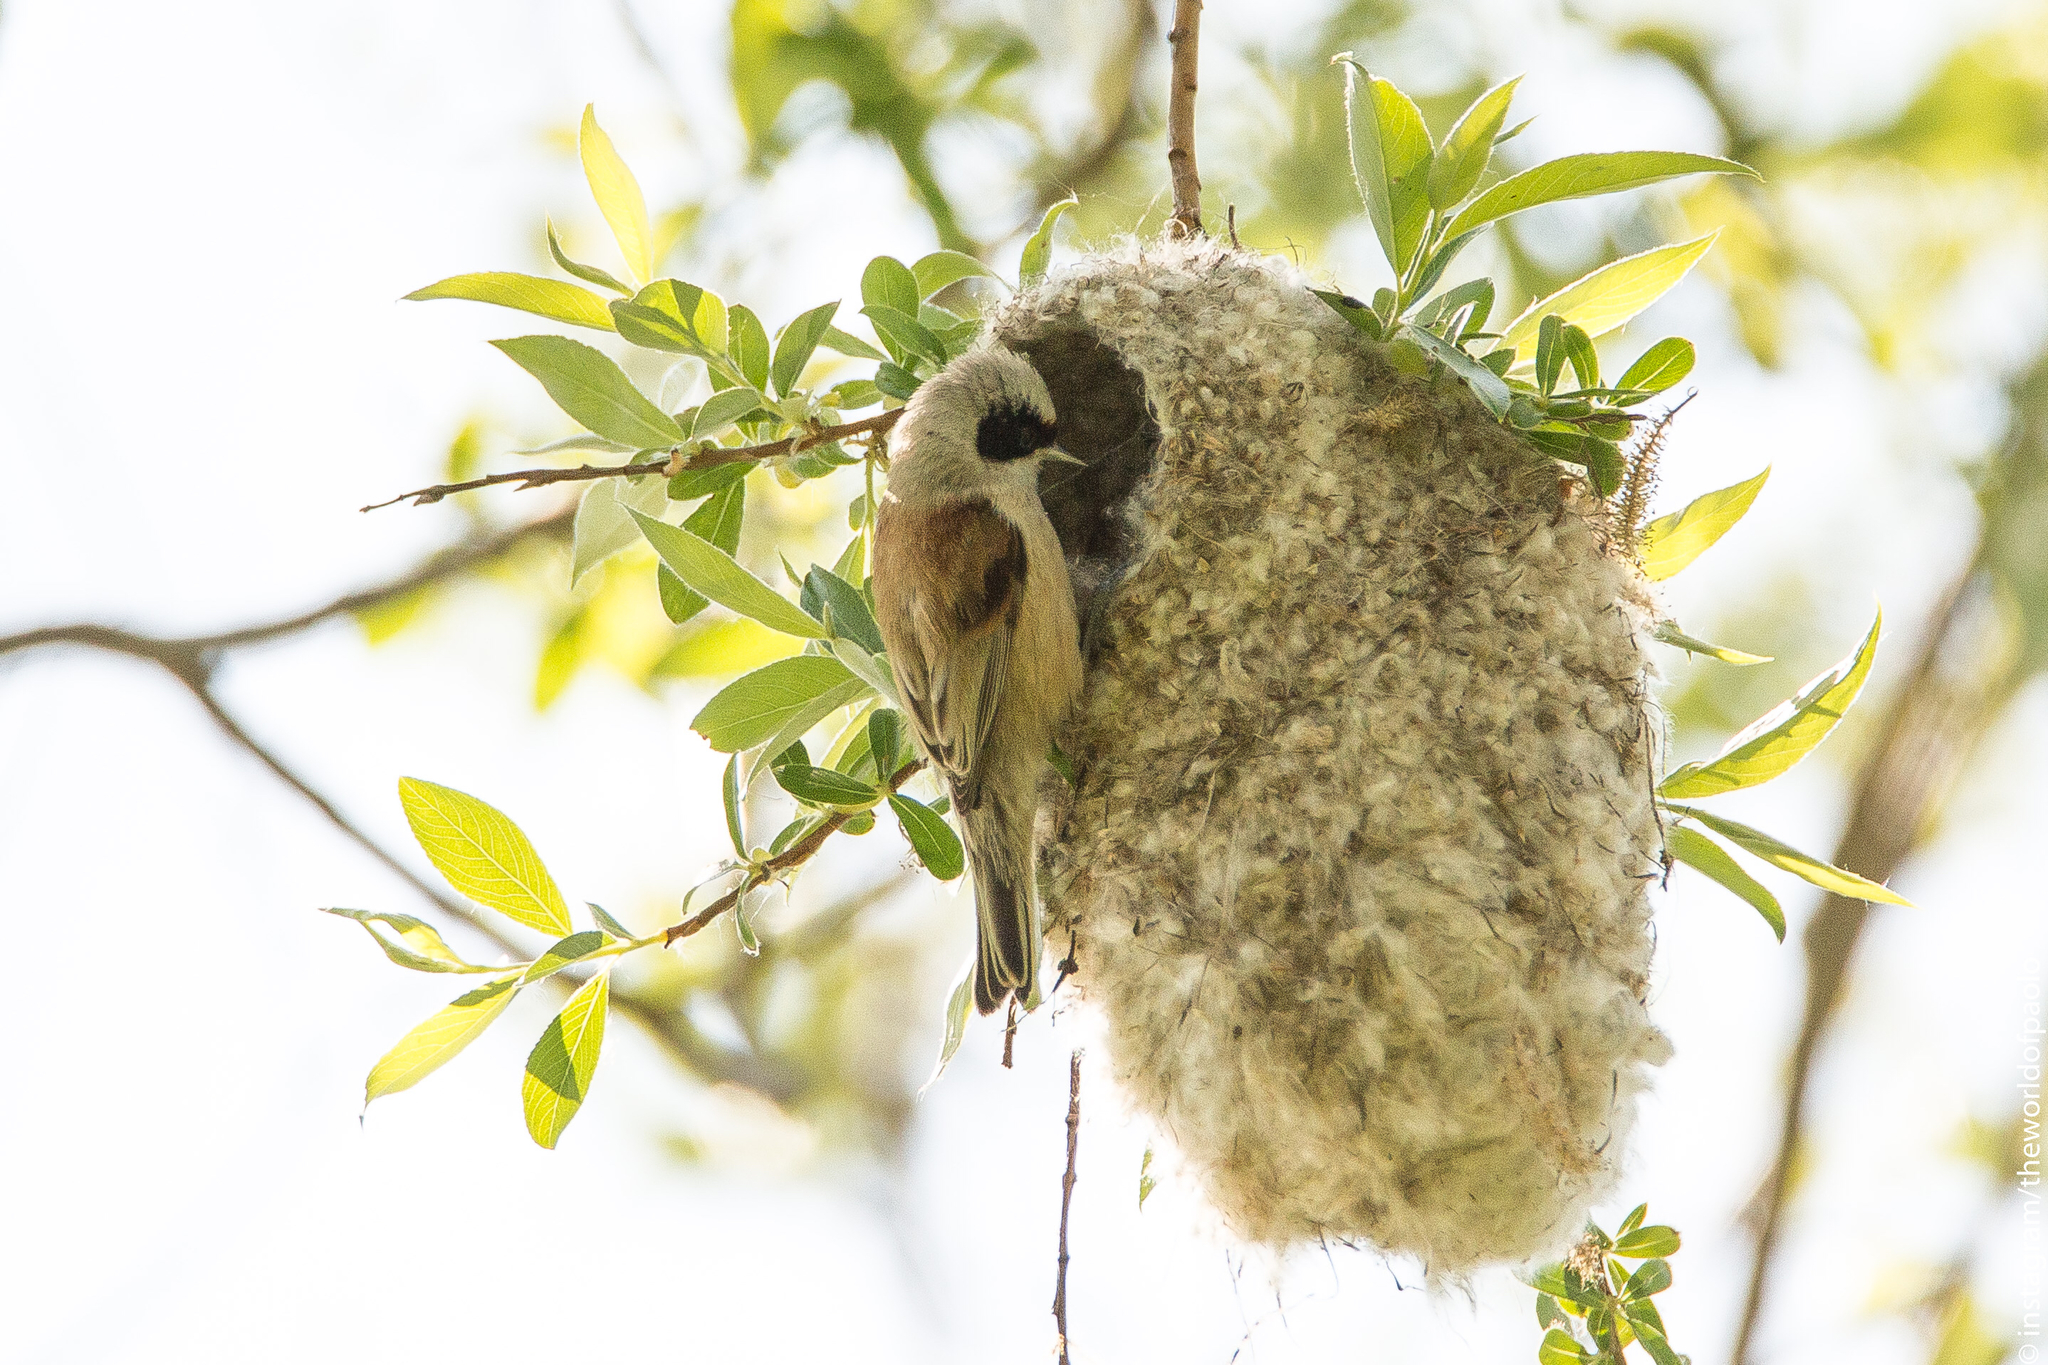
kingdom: Animalia
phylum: Chordata
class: Aves
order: Passeriformes
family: Remizidae
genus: Remiz
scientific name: Remiz pendulinus
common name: Eurasian penduline tit
